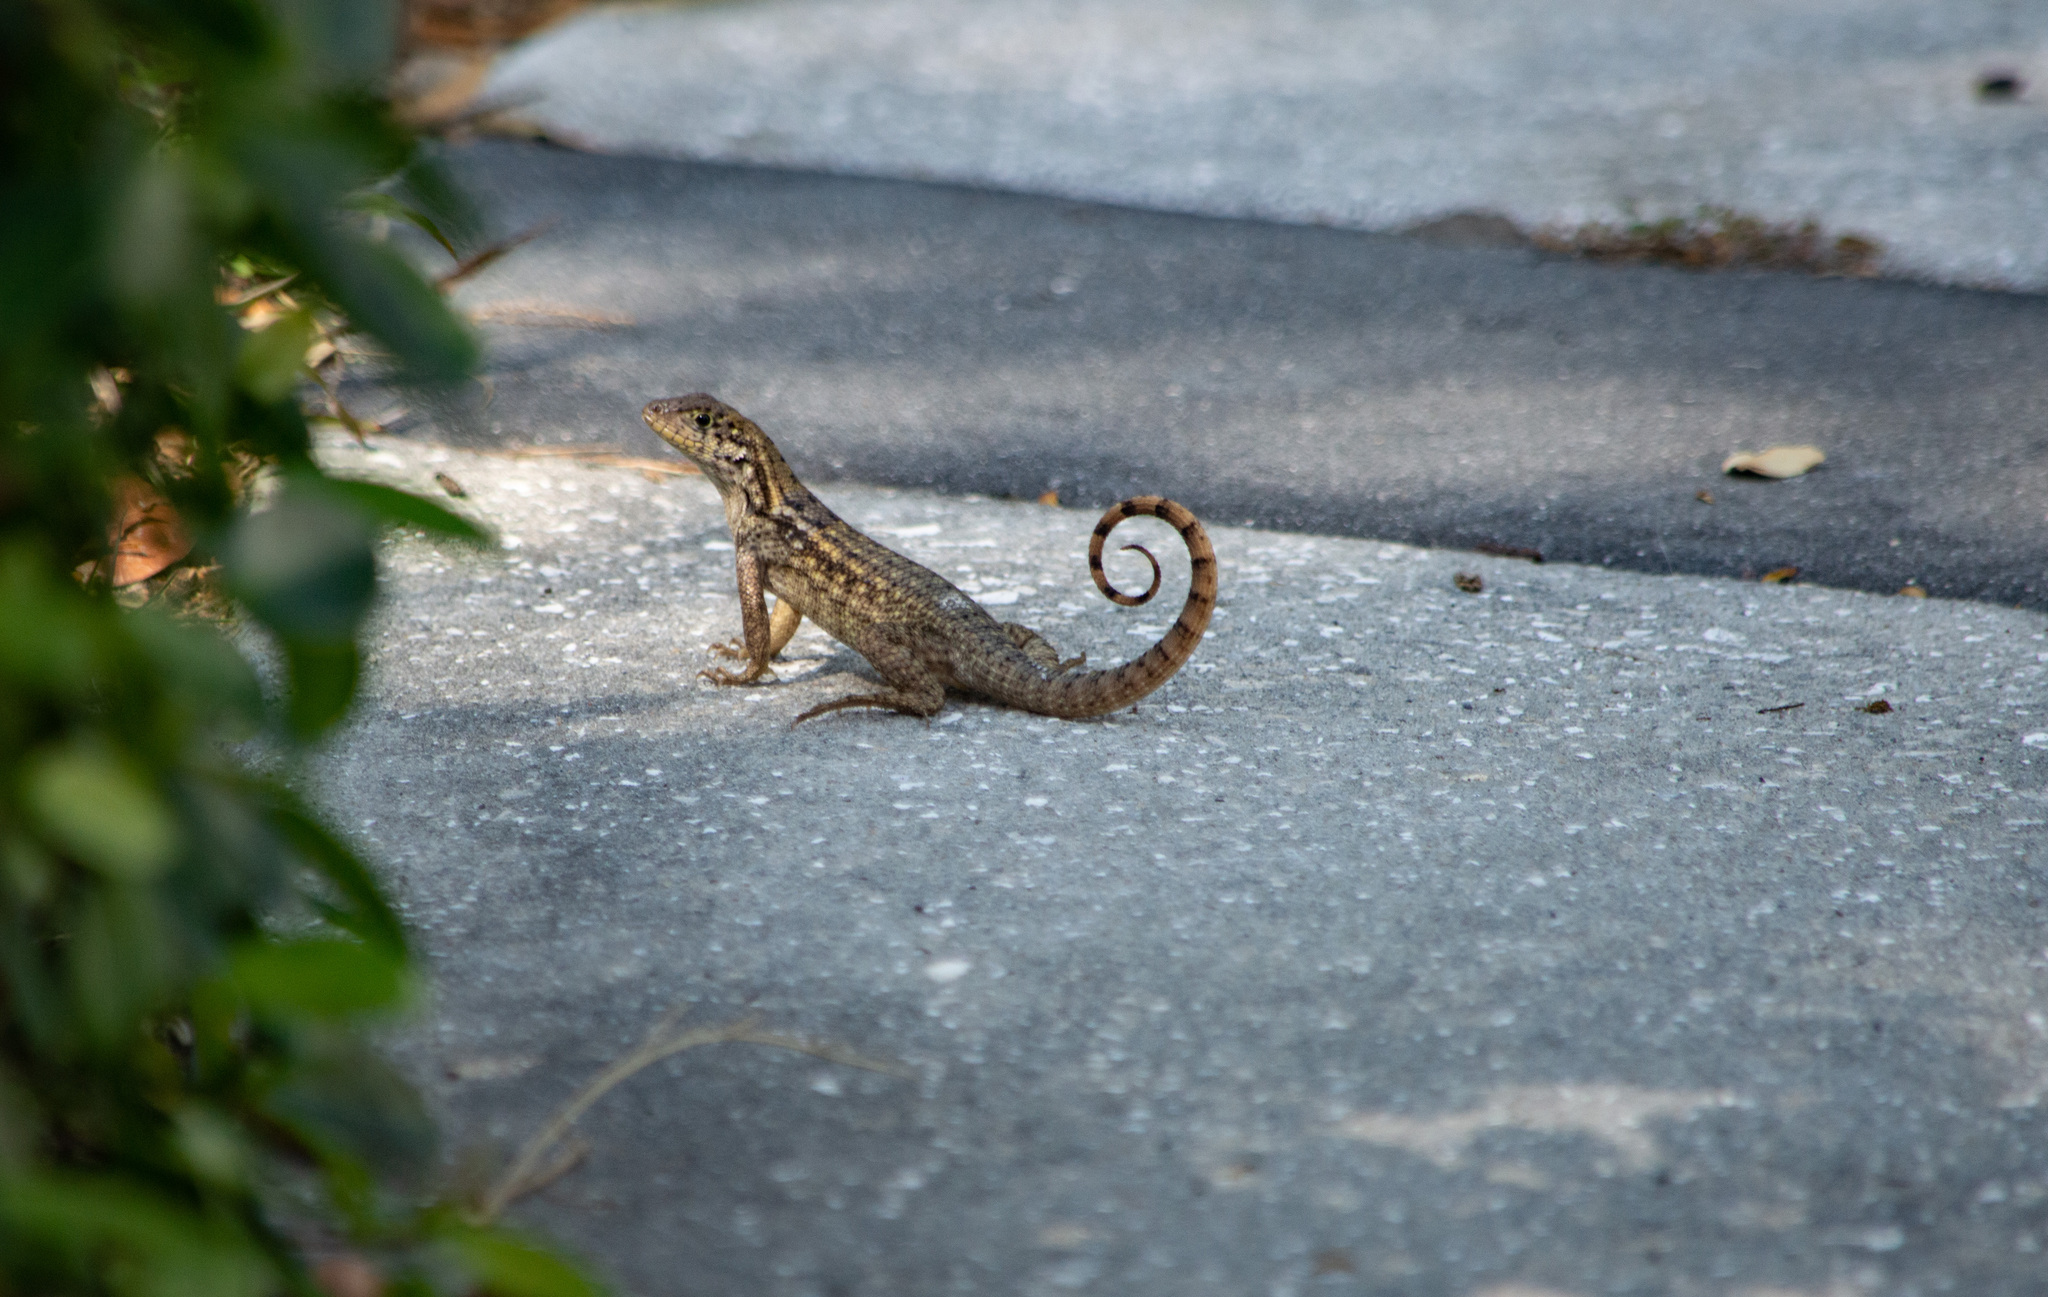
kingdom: Animalia
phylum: Chordata
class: Squamata
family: Leiocephalidae
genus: Leiocephalus
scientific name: Leiocephalus carinatus
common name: Northern curly-tailed lizard
